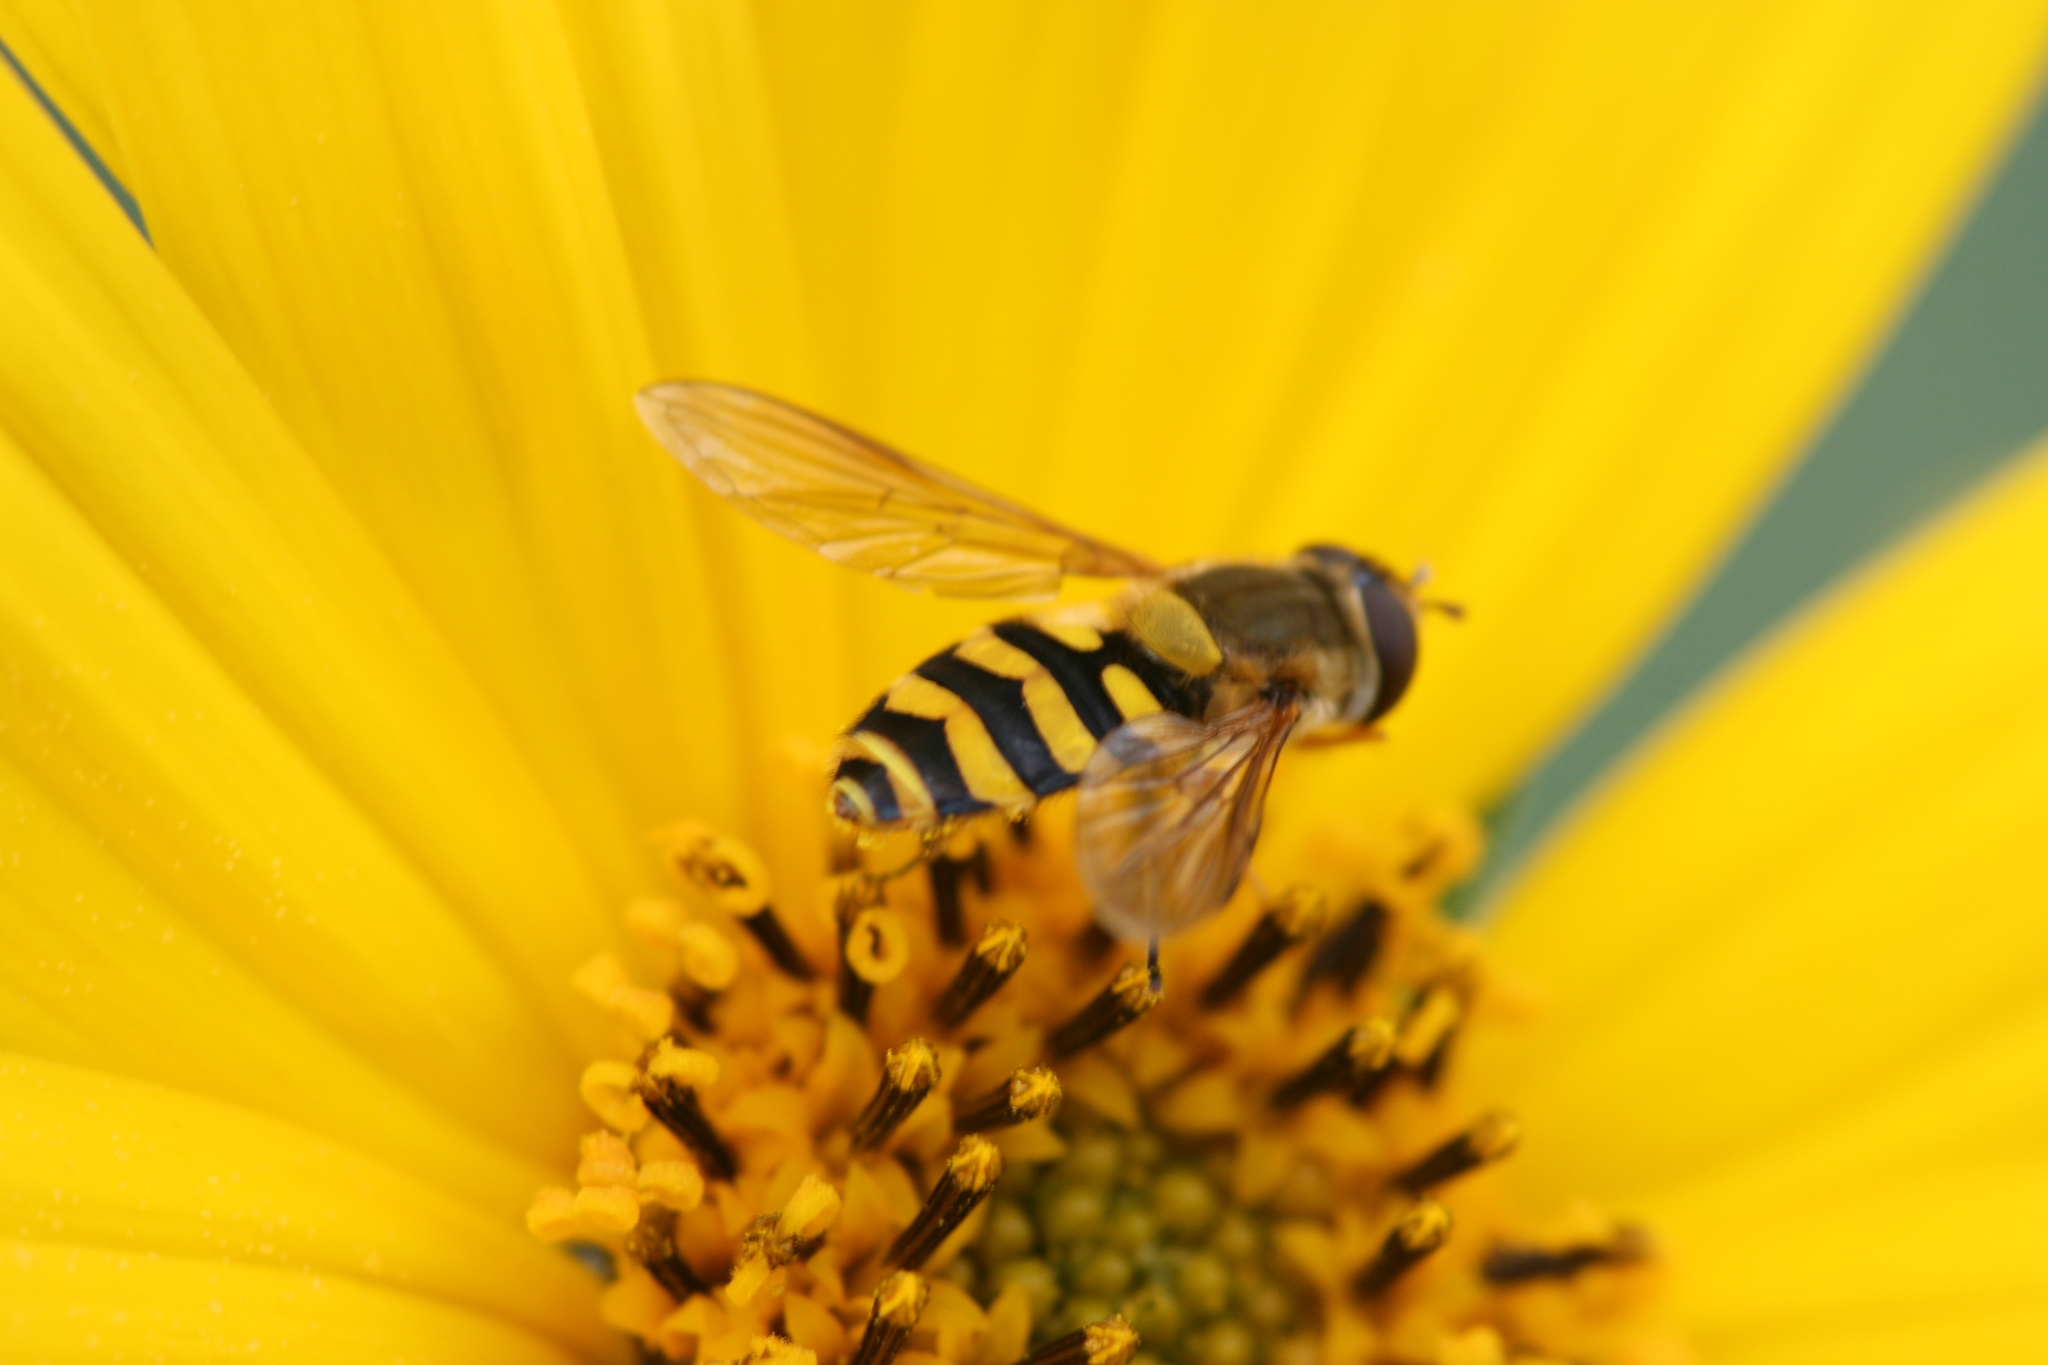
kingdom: Animalia
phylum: Arthropoda
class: Insecta
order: Diptera
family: Syrphidae
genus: Syrphus
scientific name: Syrphus
